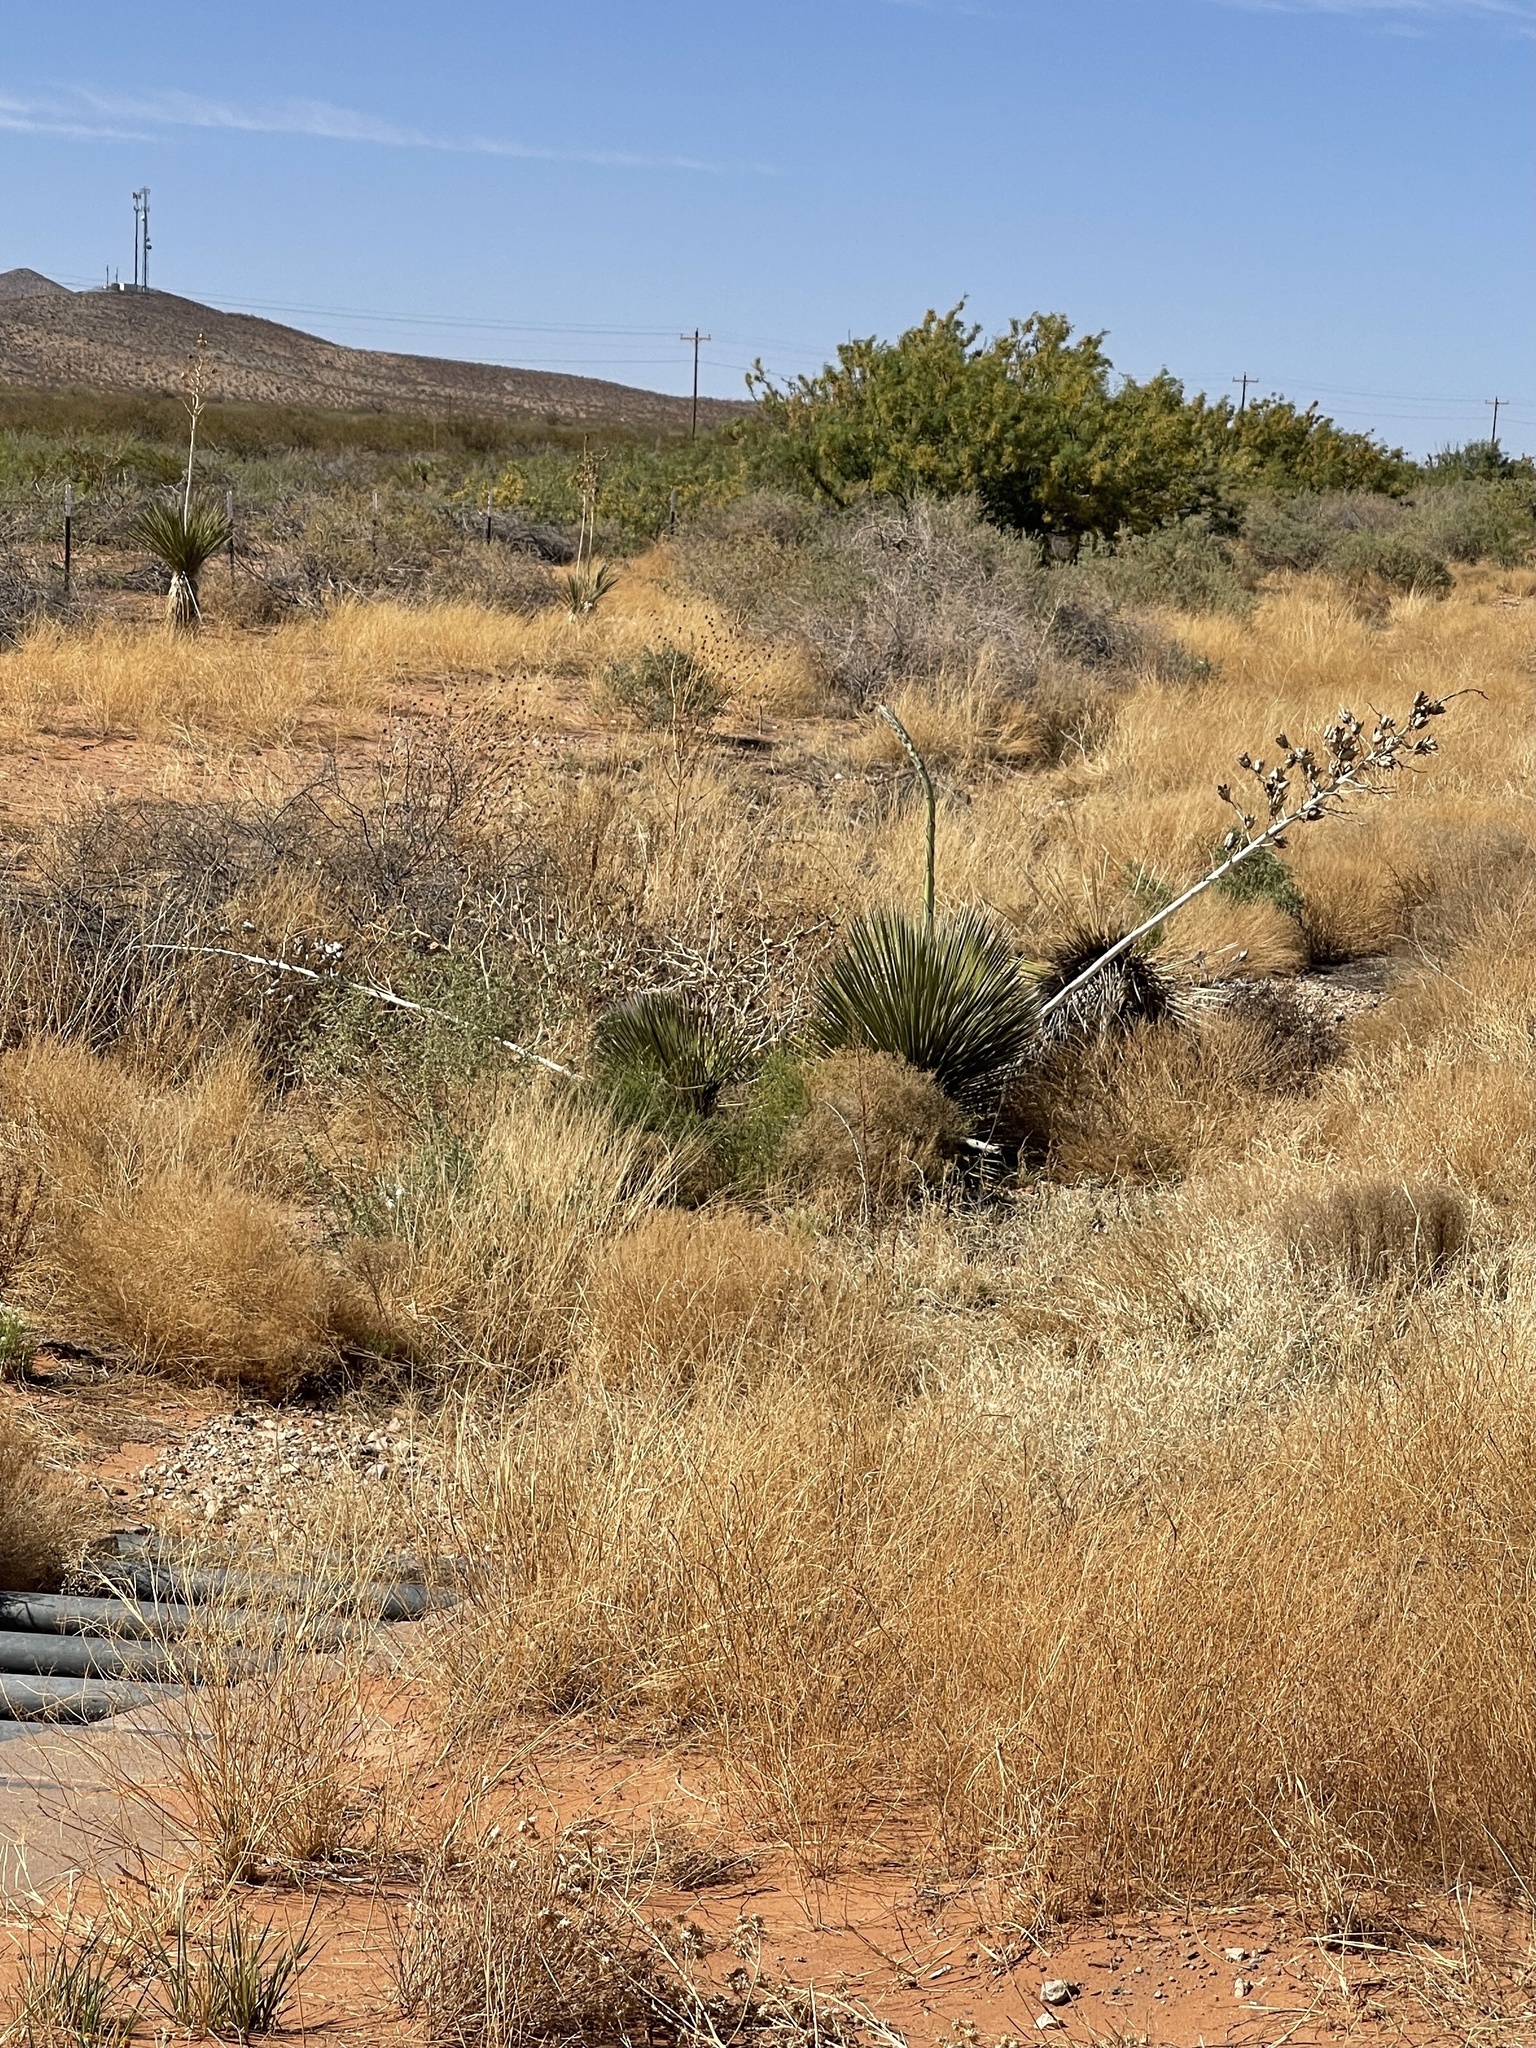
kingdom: Plantae
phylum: Tracheophyta
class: Liliopsida
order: Asparagales
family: Asparagaceae
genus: Yucca
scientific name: Yucca elata
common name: Palmella
